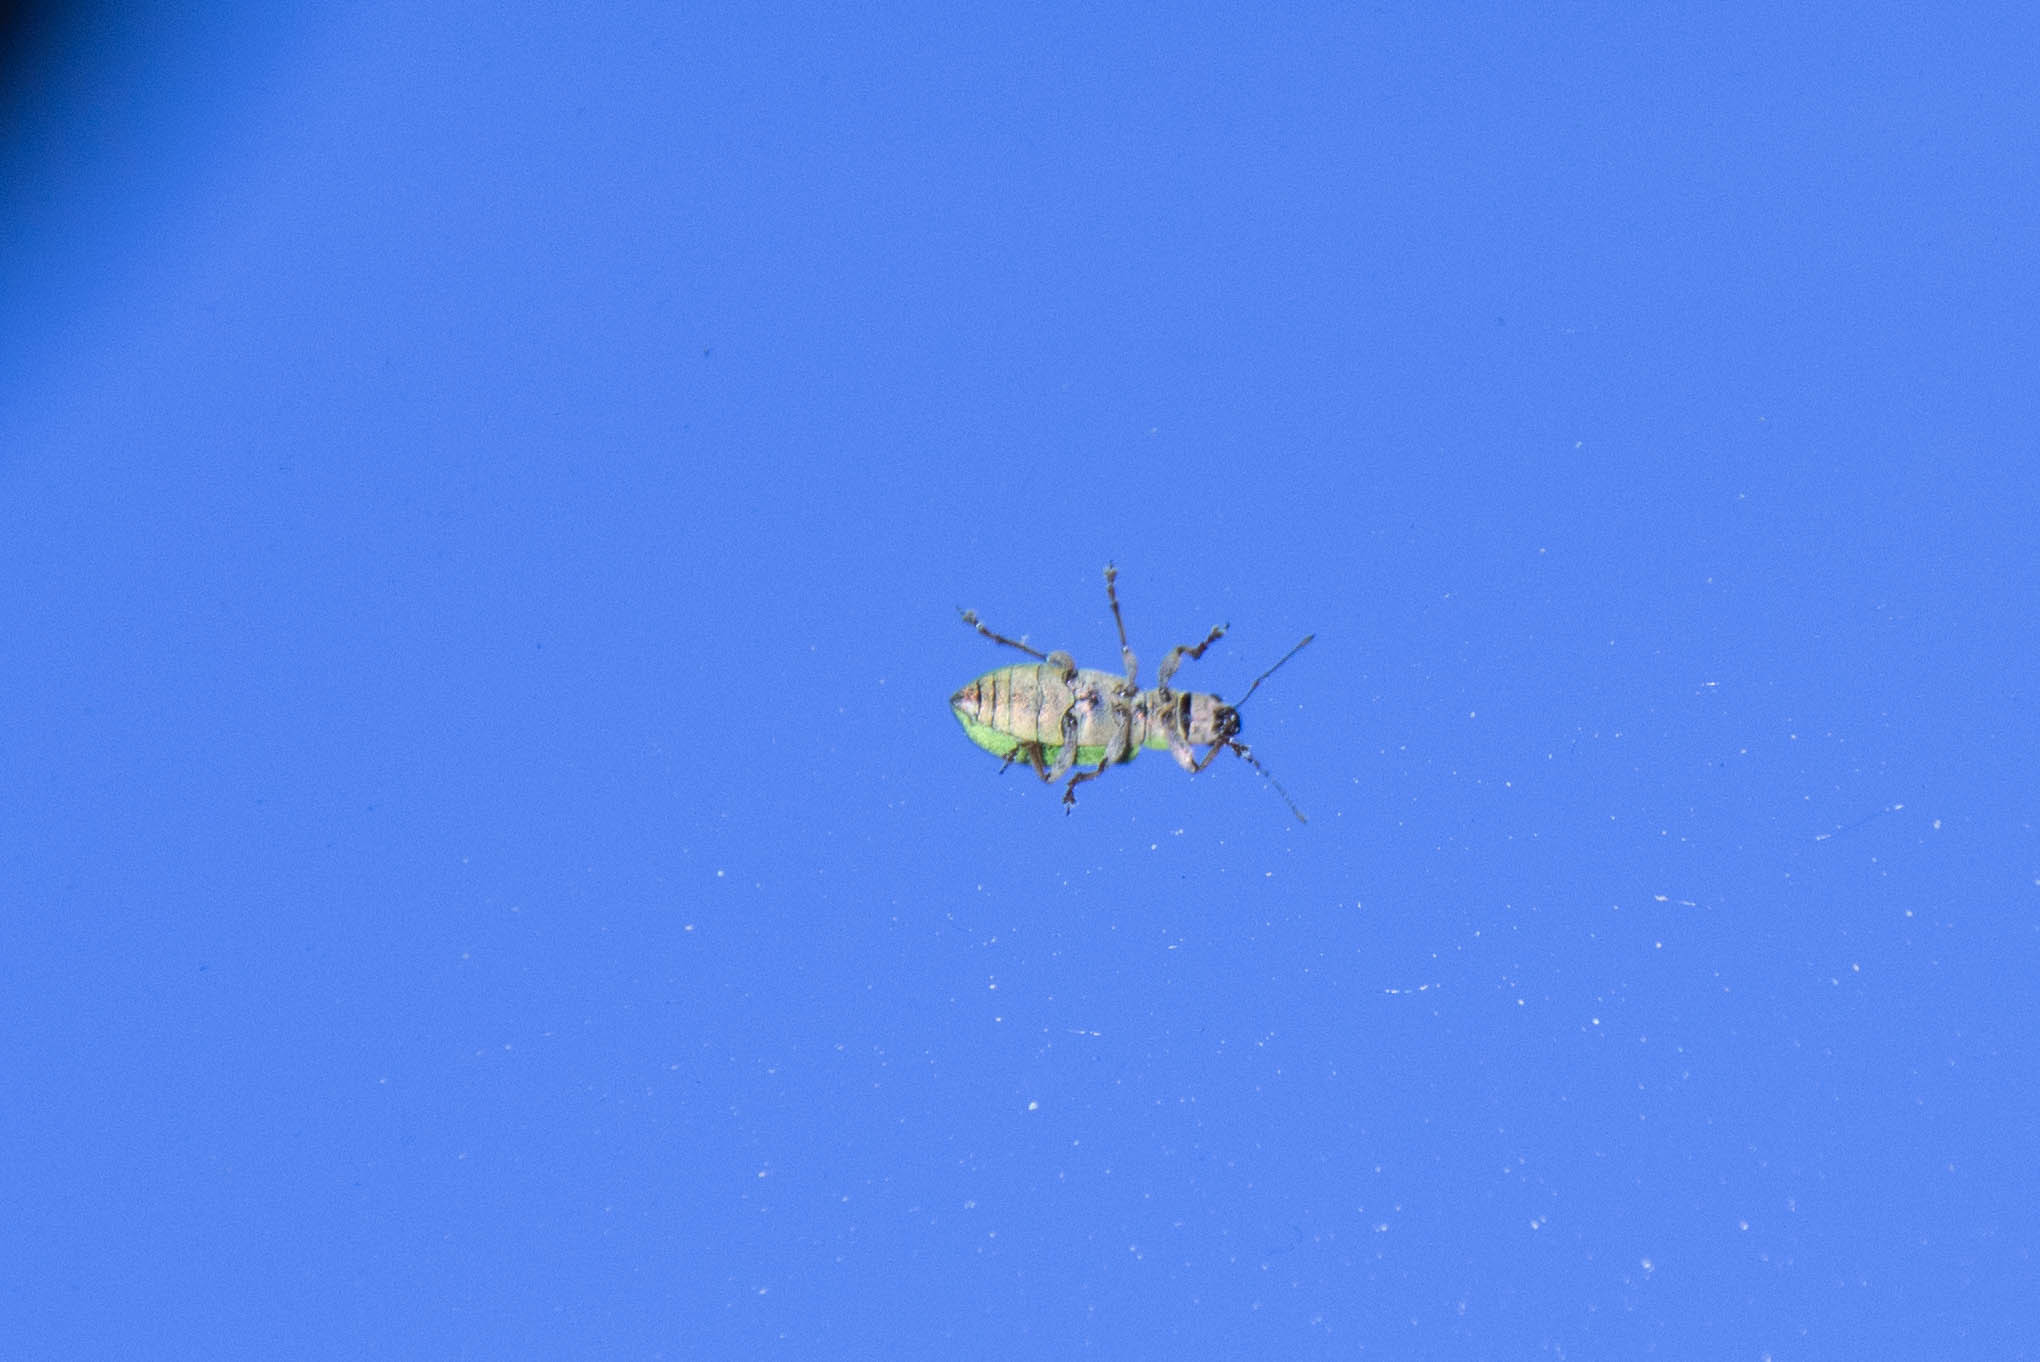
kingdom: Animalia
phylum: Arthropoda
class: Insecta
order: Coleoptera
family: Curculionidae
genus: Pachyrhinus
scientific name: Pachyrhinus lethierryi
